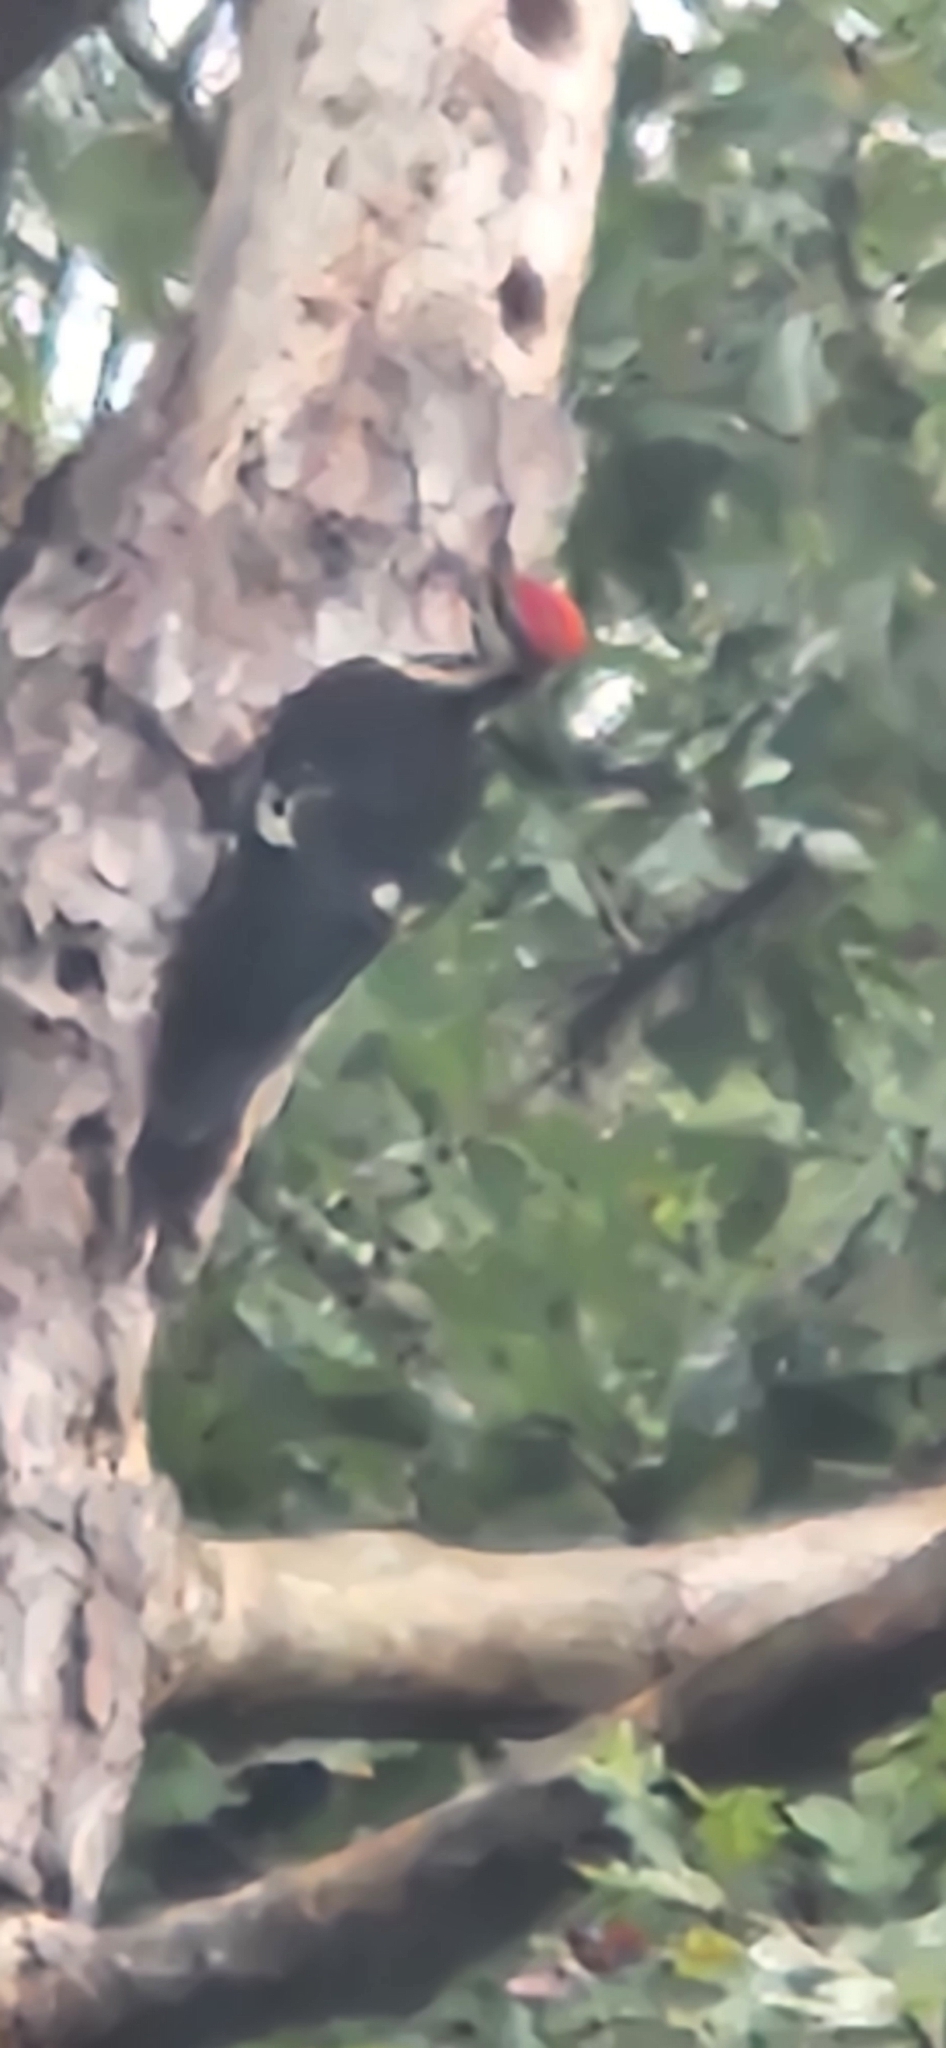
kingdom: Animalia
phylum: Chordata
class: Aves
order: Piciformes
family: Picidae
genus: Dryocopus
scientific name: Dryocopus pileatus
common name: Pileated woodpecker
